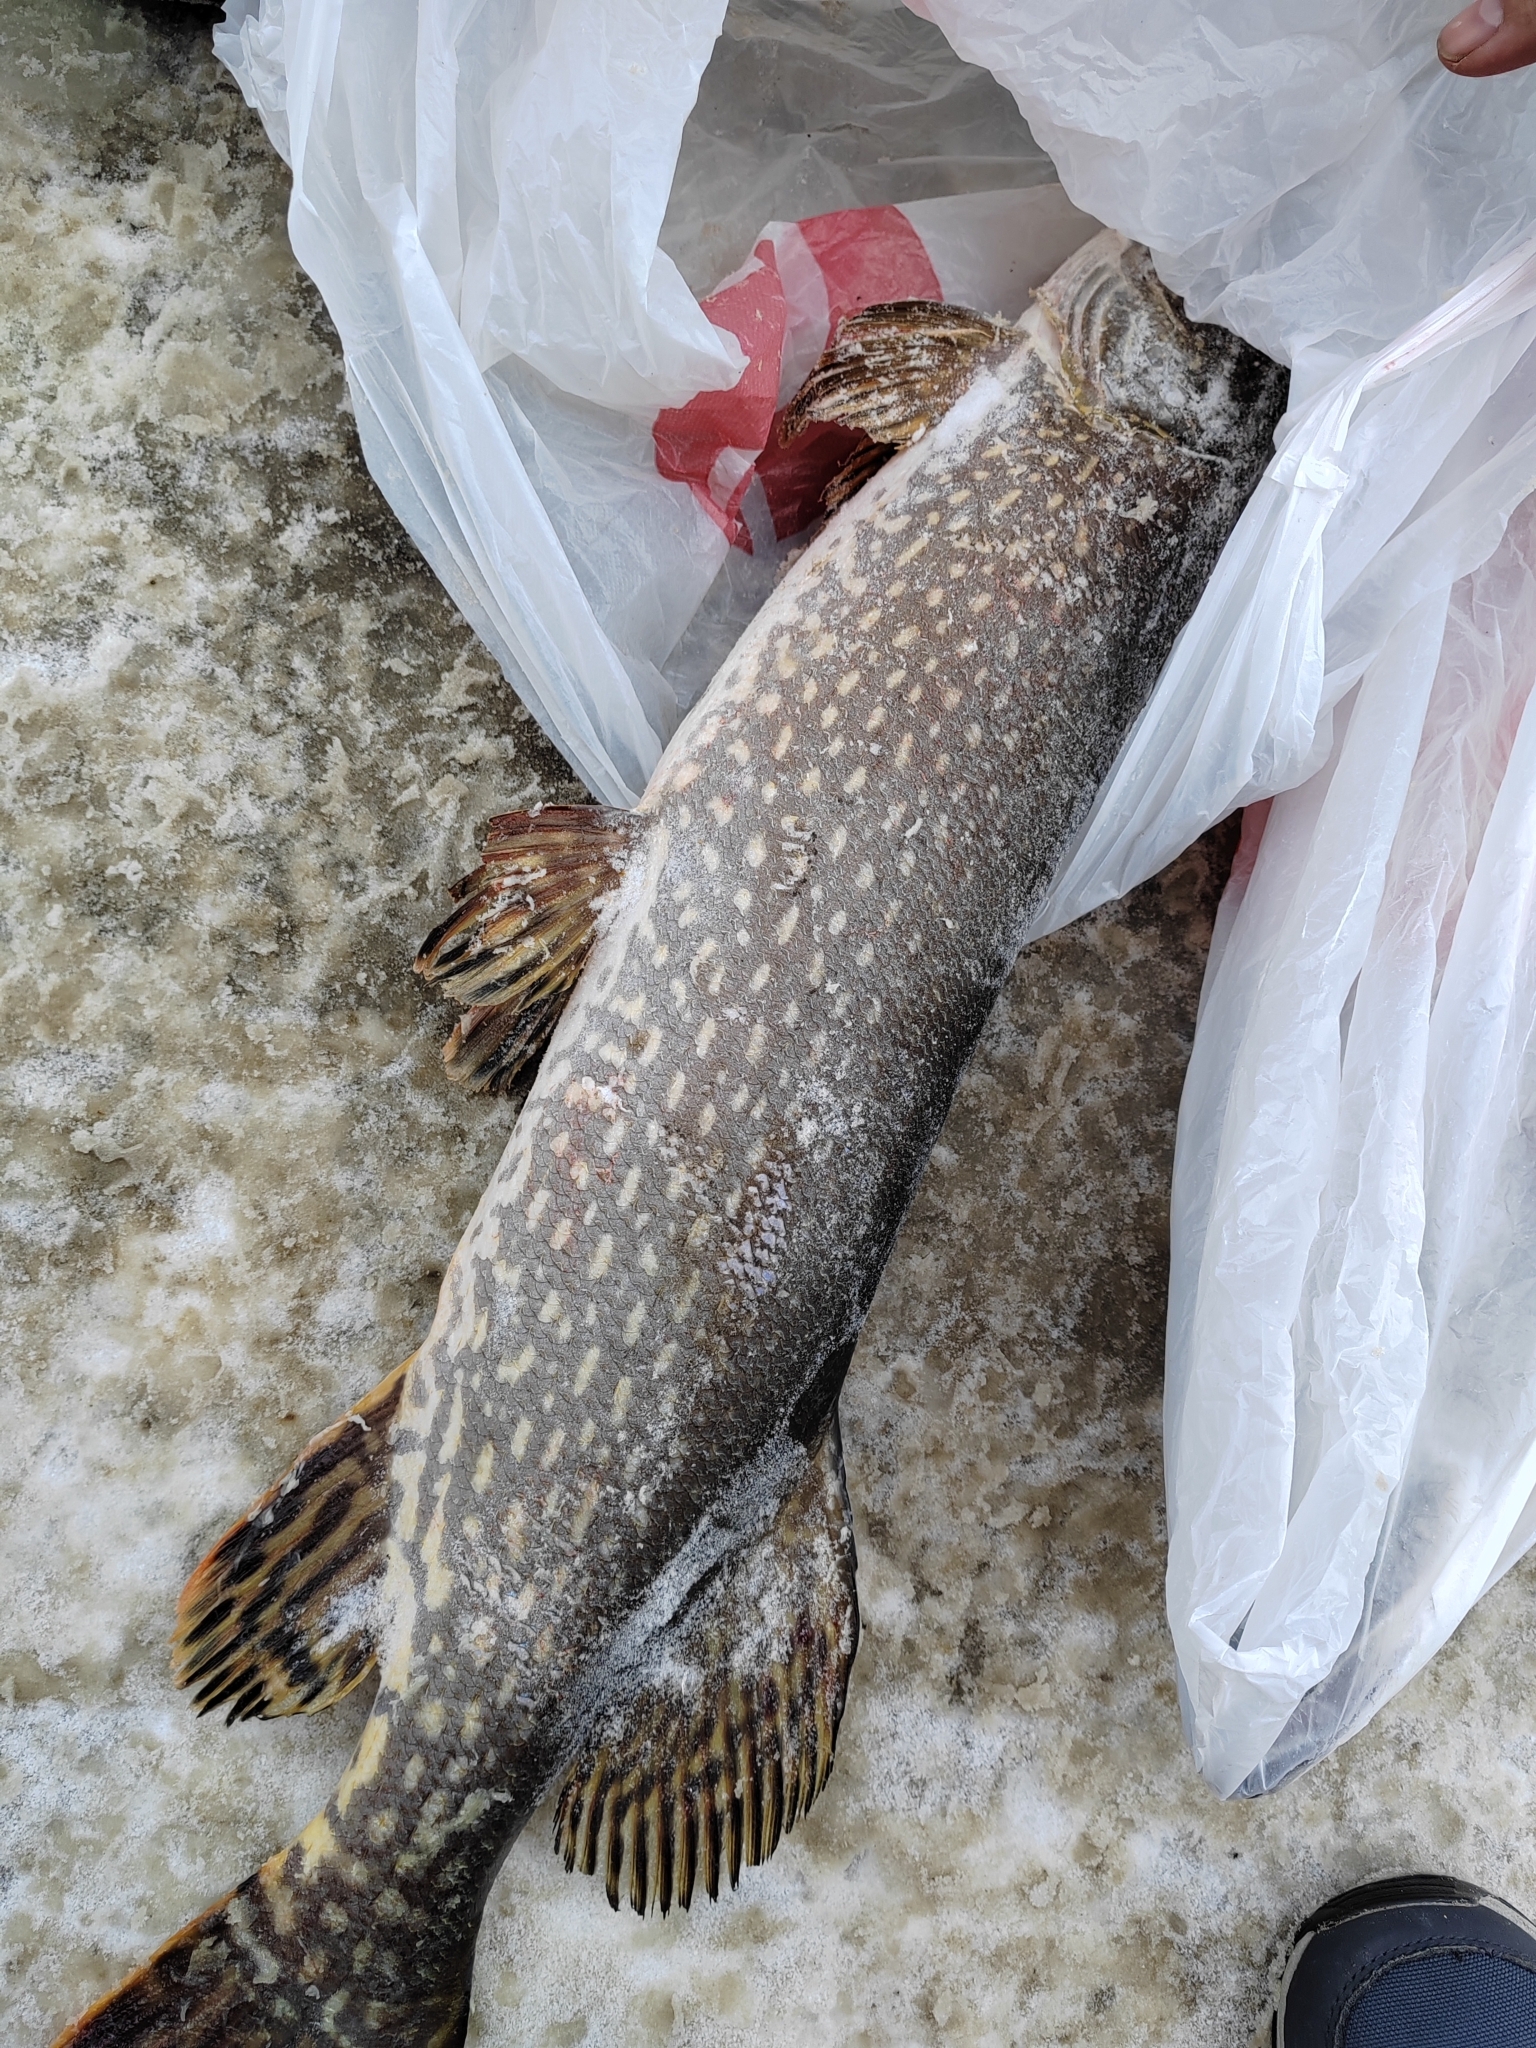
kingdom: Animalia
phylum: Chordata
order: Esociformes
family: Esocidae
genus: Esox
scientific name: Esox lucius
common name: Northern pike
